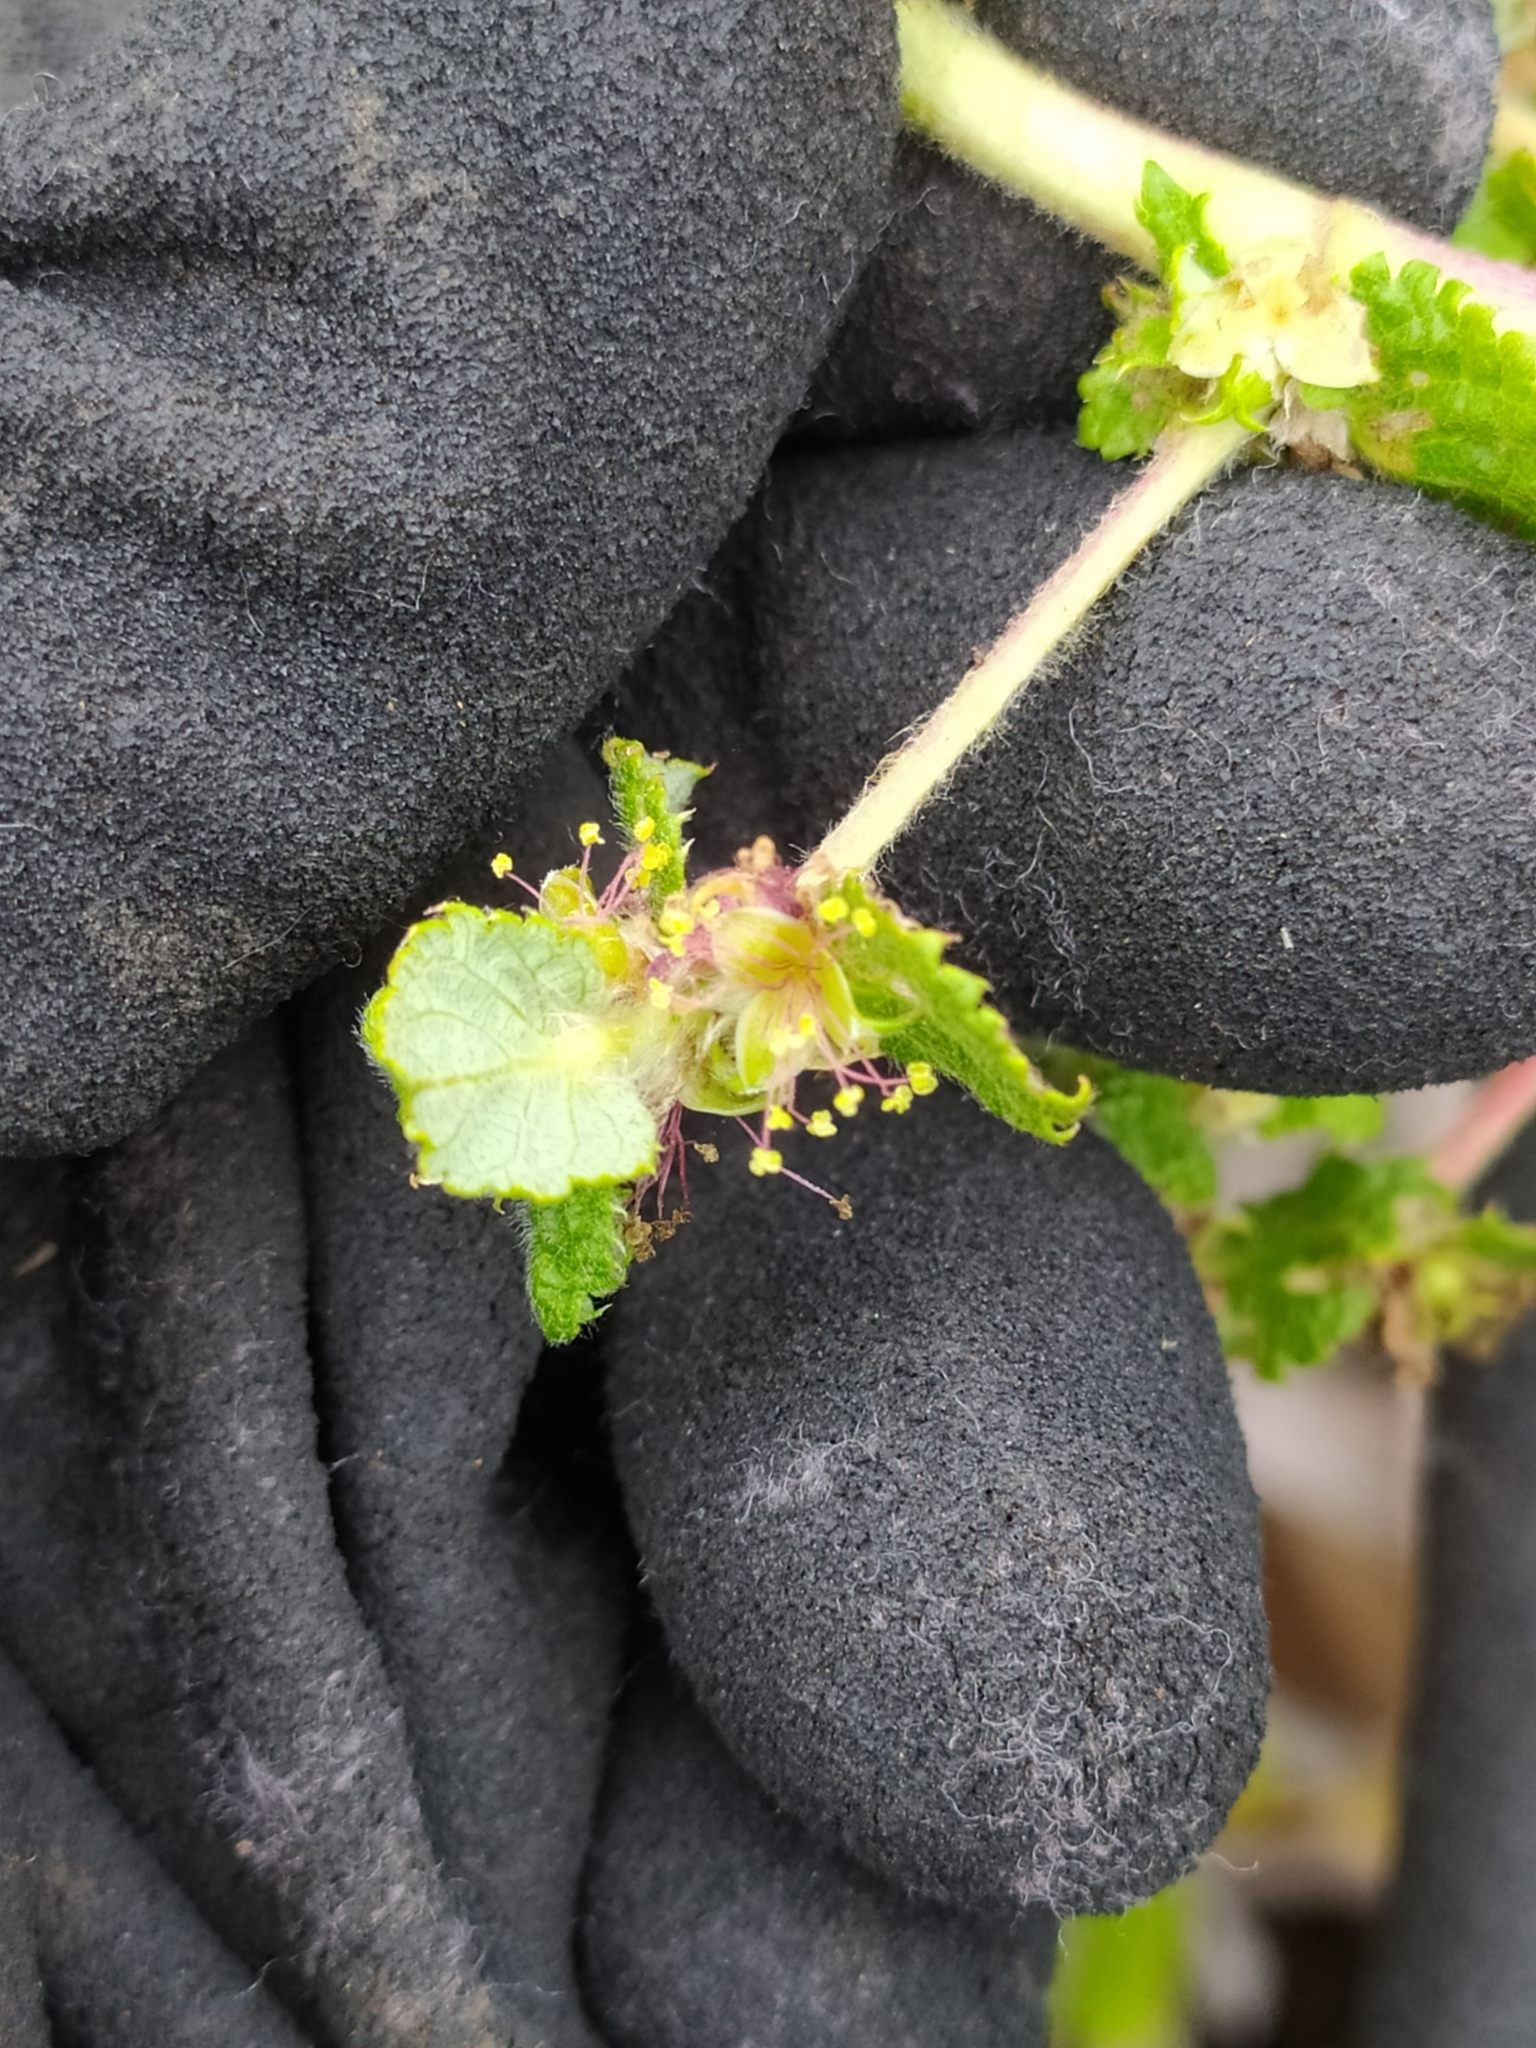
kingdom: Plantae
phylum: Tracheophyta
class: Magnoliopsida
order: Rosales
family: Rosaceae
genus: Cliffortia
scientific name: Cliffortia odorata
